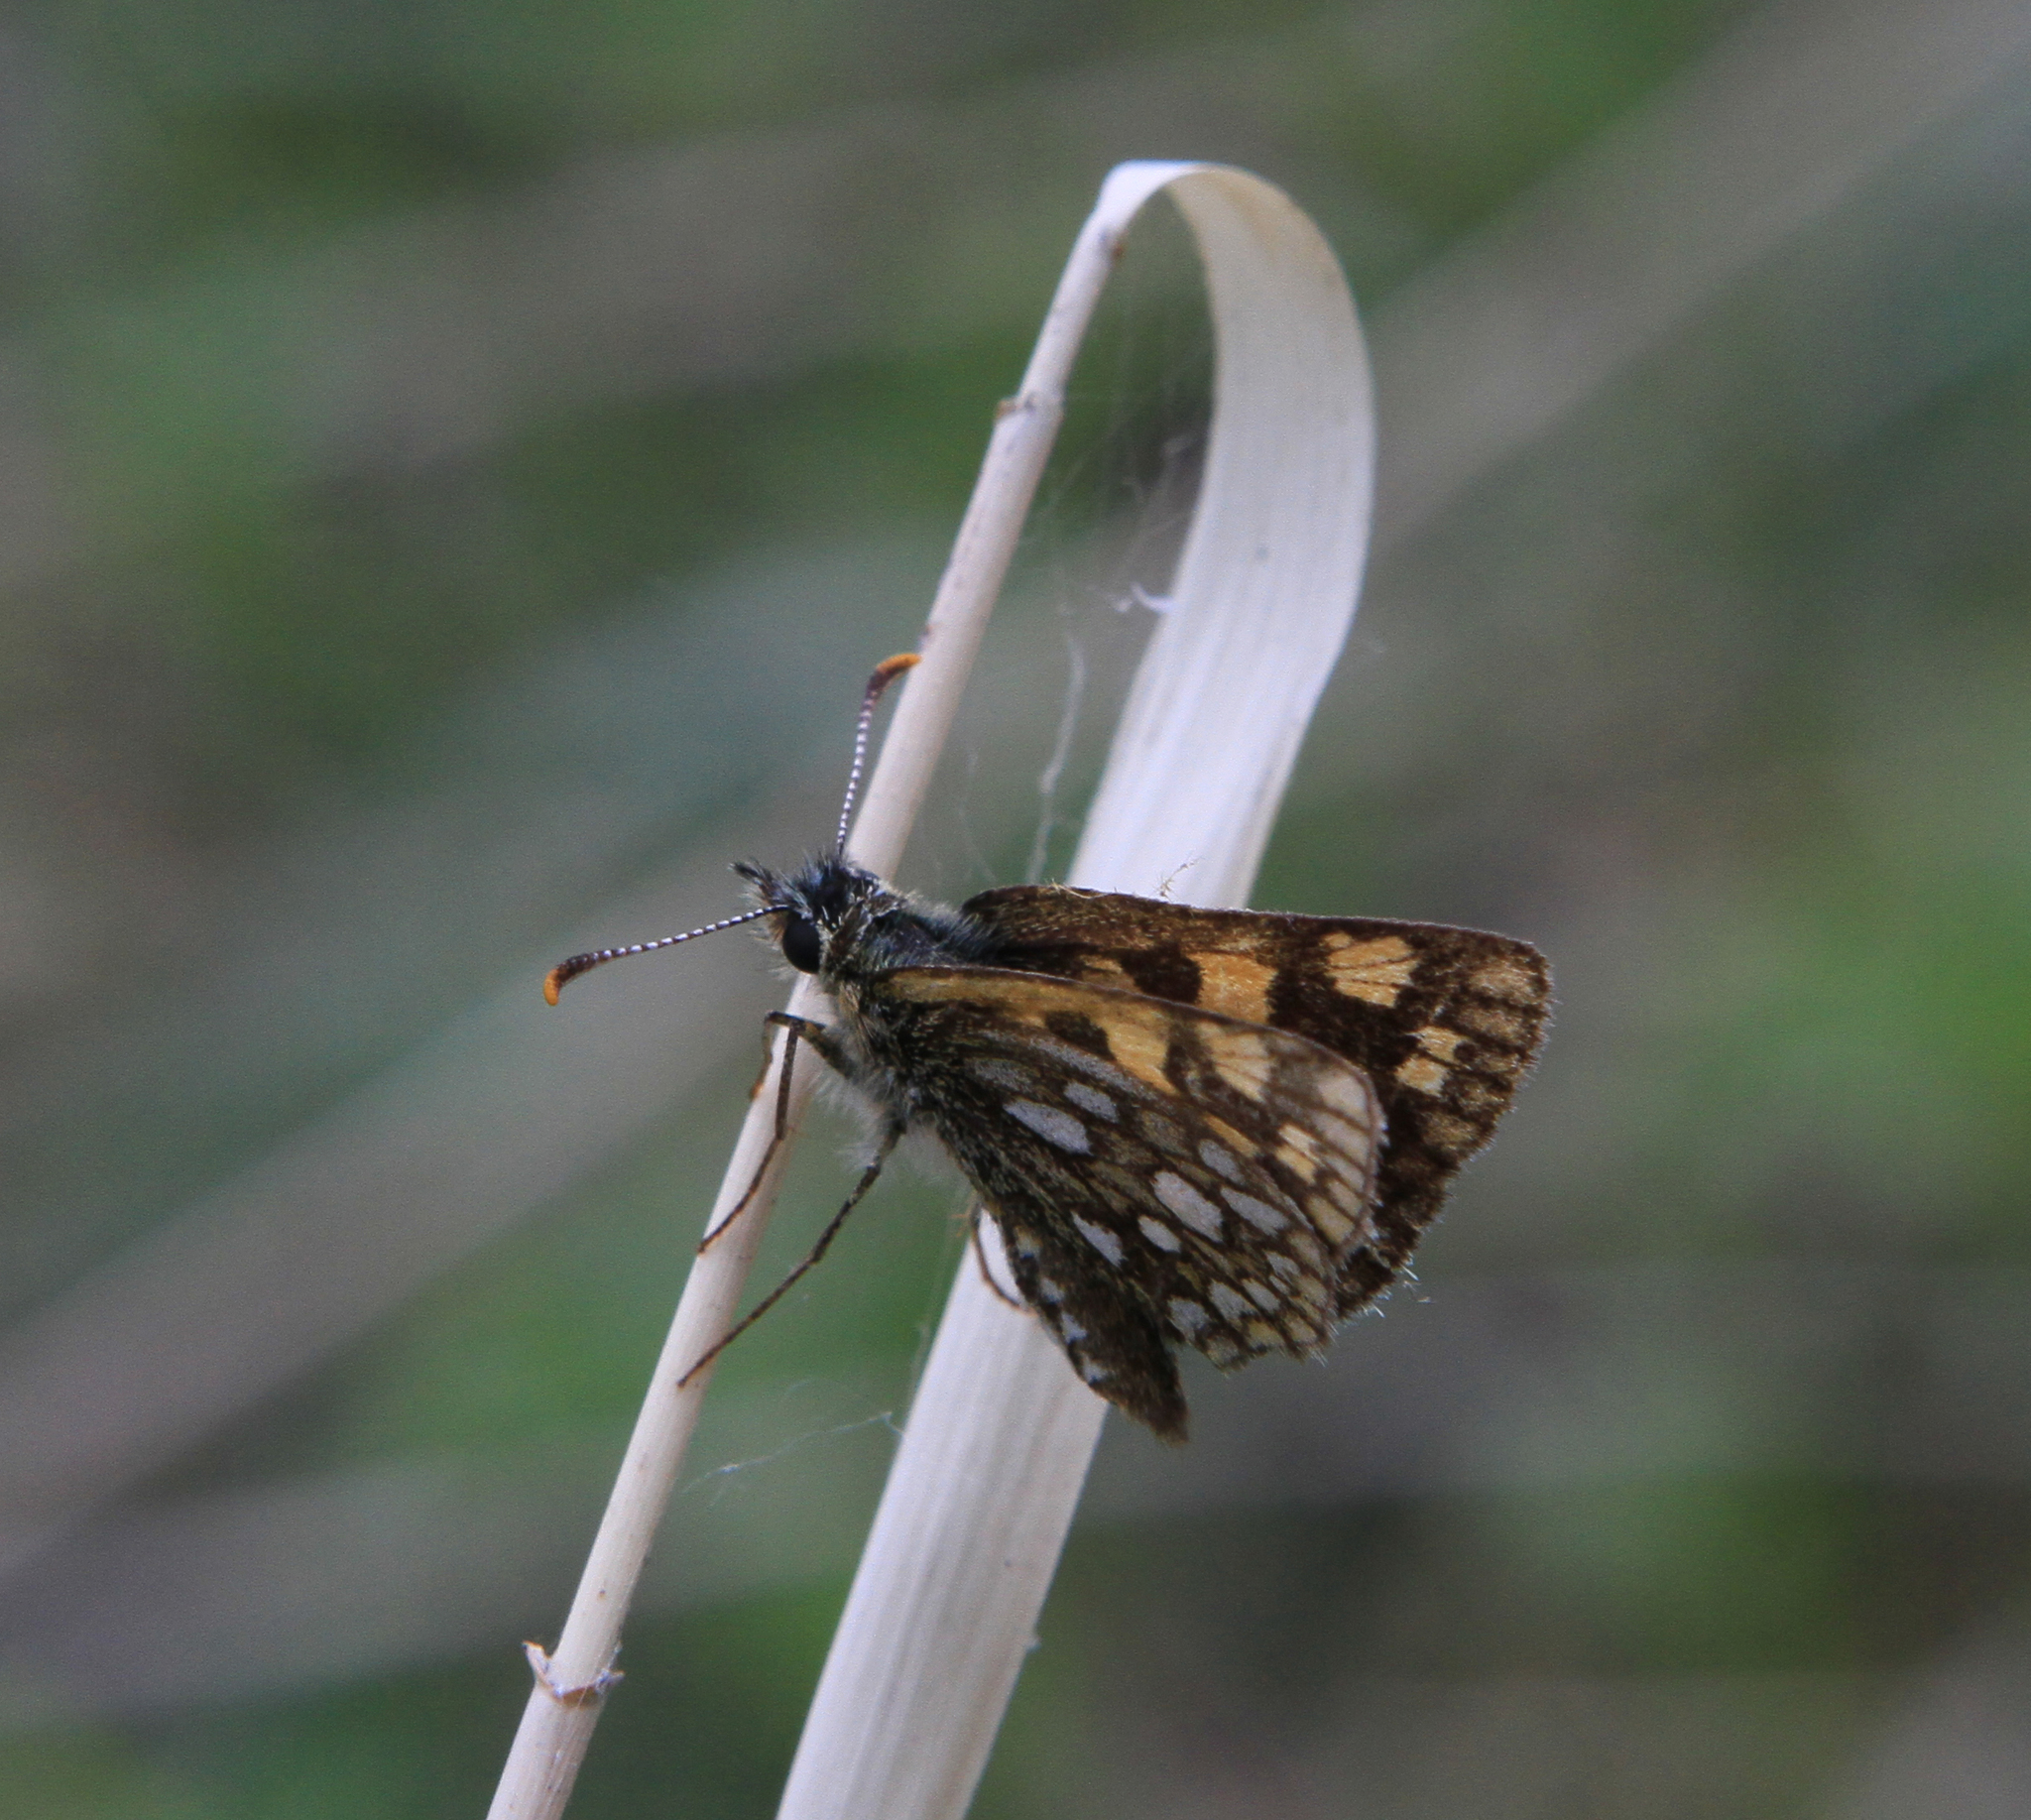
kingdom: Animalia
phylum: Arthropoda
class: Insecta
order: Lepidoptera
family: Hesperiidae
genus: Carterocephalus
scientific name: Carterocephalus palaemon
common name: Chequered skipper
